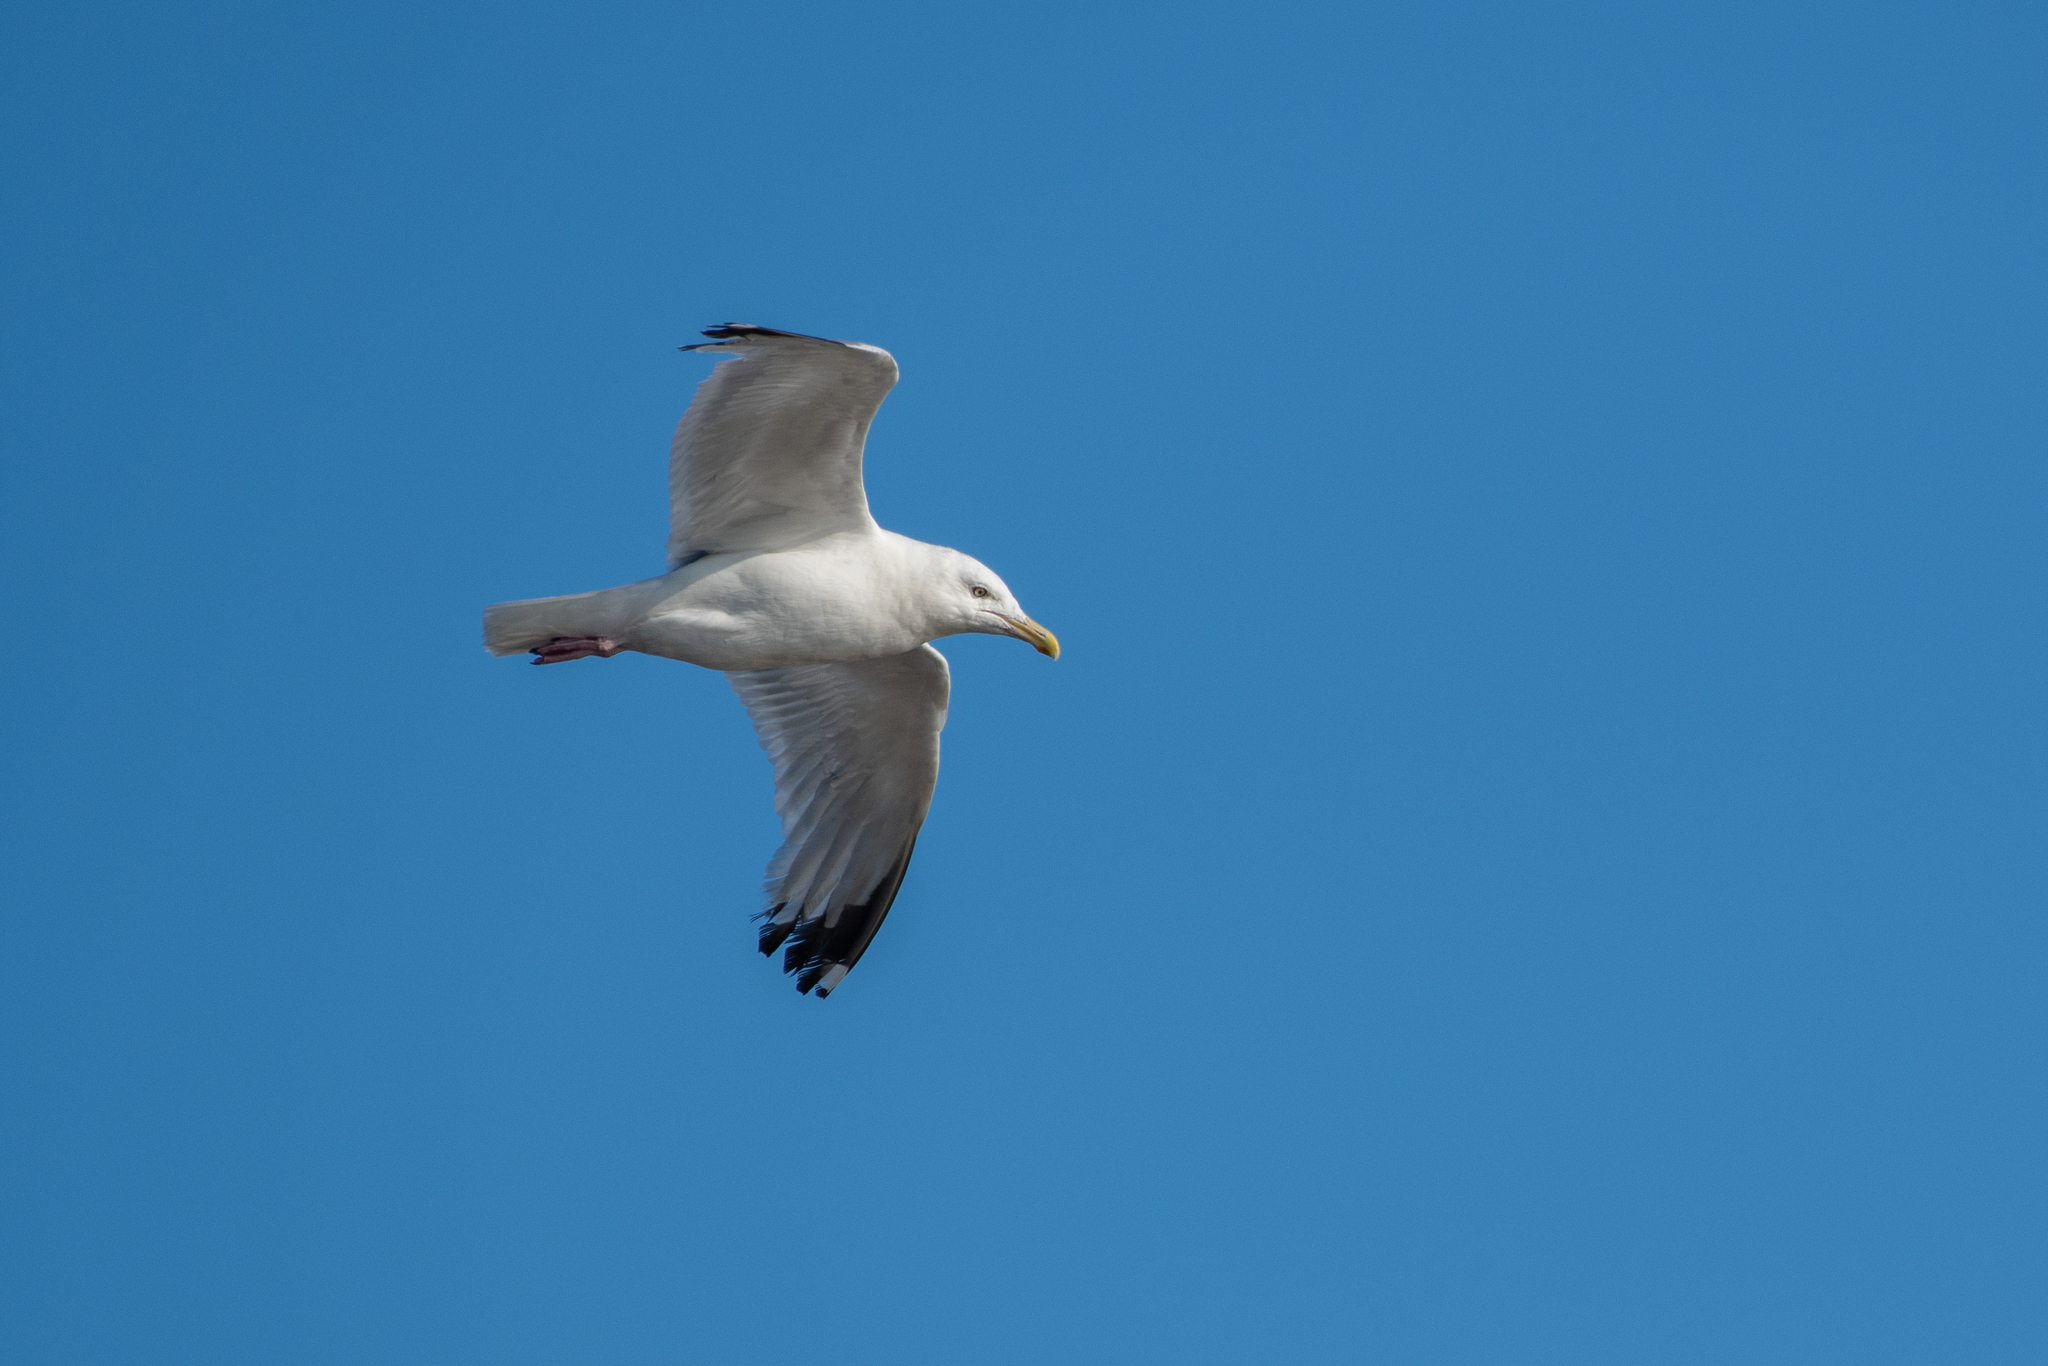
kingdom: Animalia
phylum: Chordata
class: Aves
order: Charadriiformes
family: Laridae
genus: Larus
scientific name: Larus argentatus
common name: Herring gull
